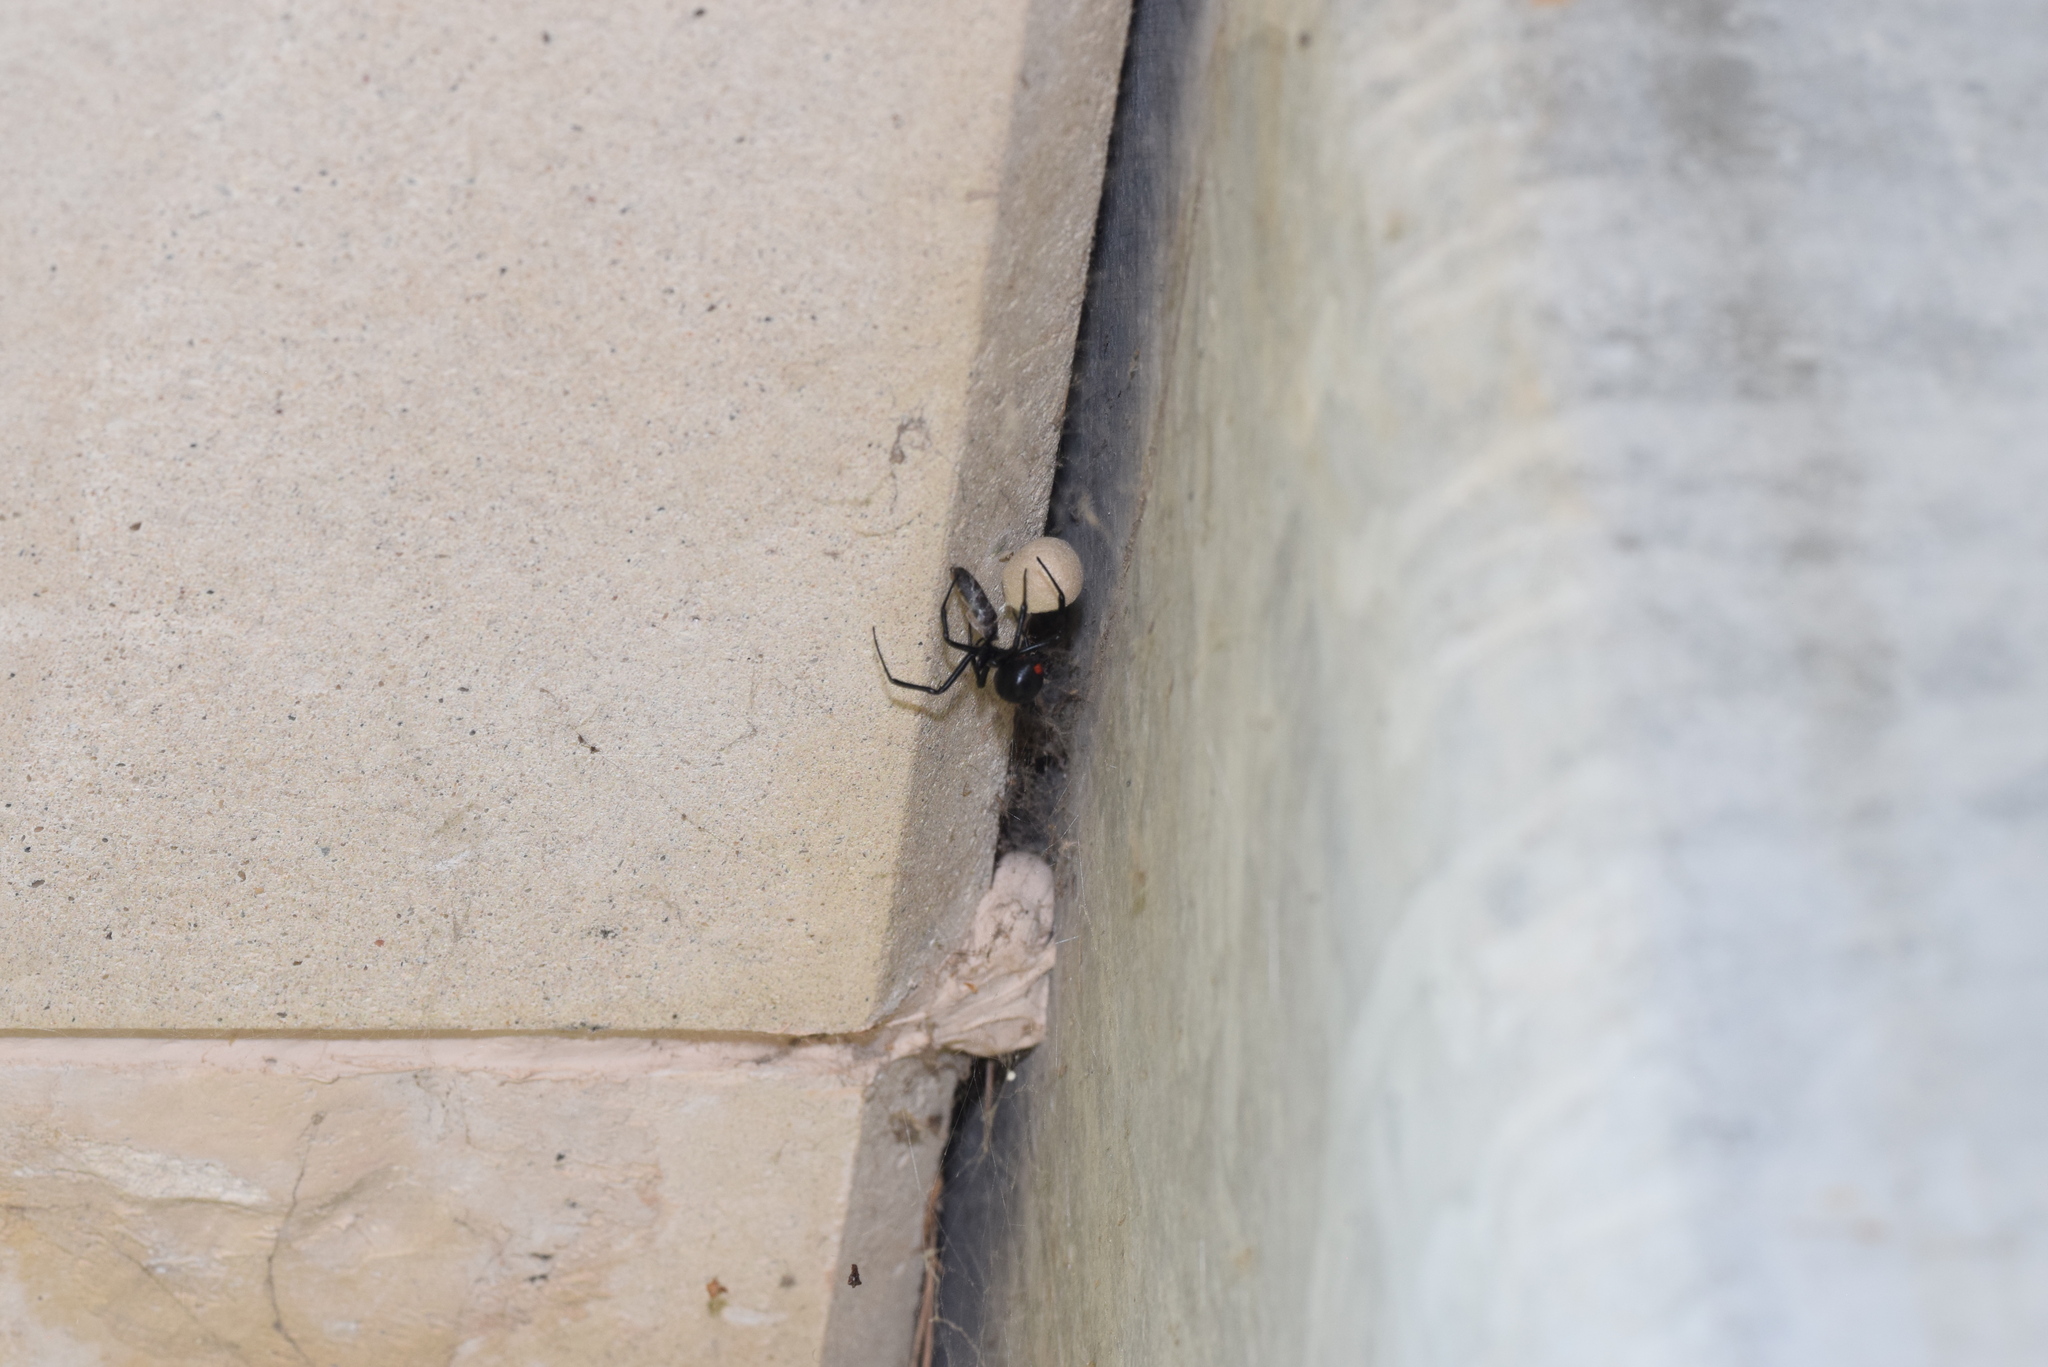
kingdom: Animalia
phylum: Arthropoda
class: Arachnida
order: Araneae
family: Theridiidae
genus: Latrodectus
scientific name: Latrodectus mactans
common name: Cobweb spiders
